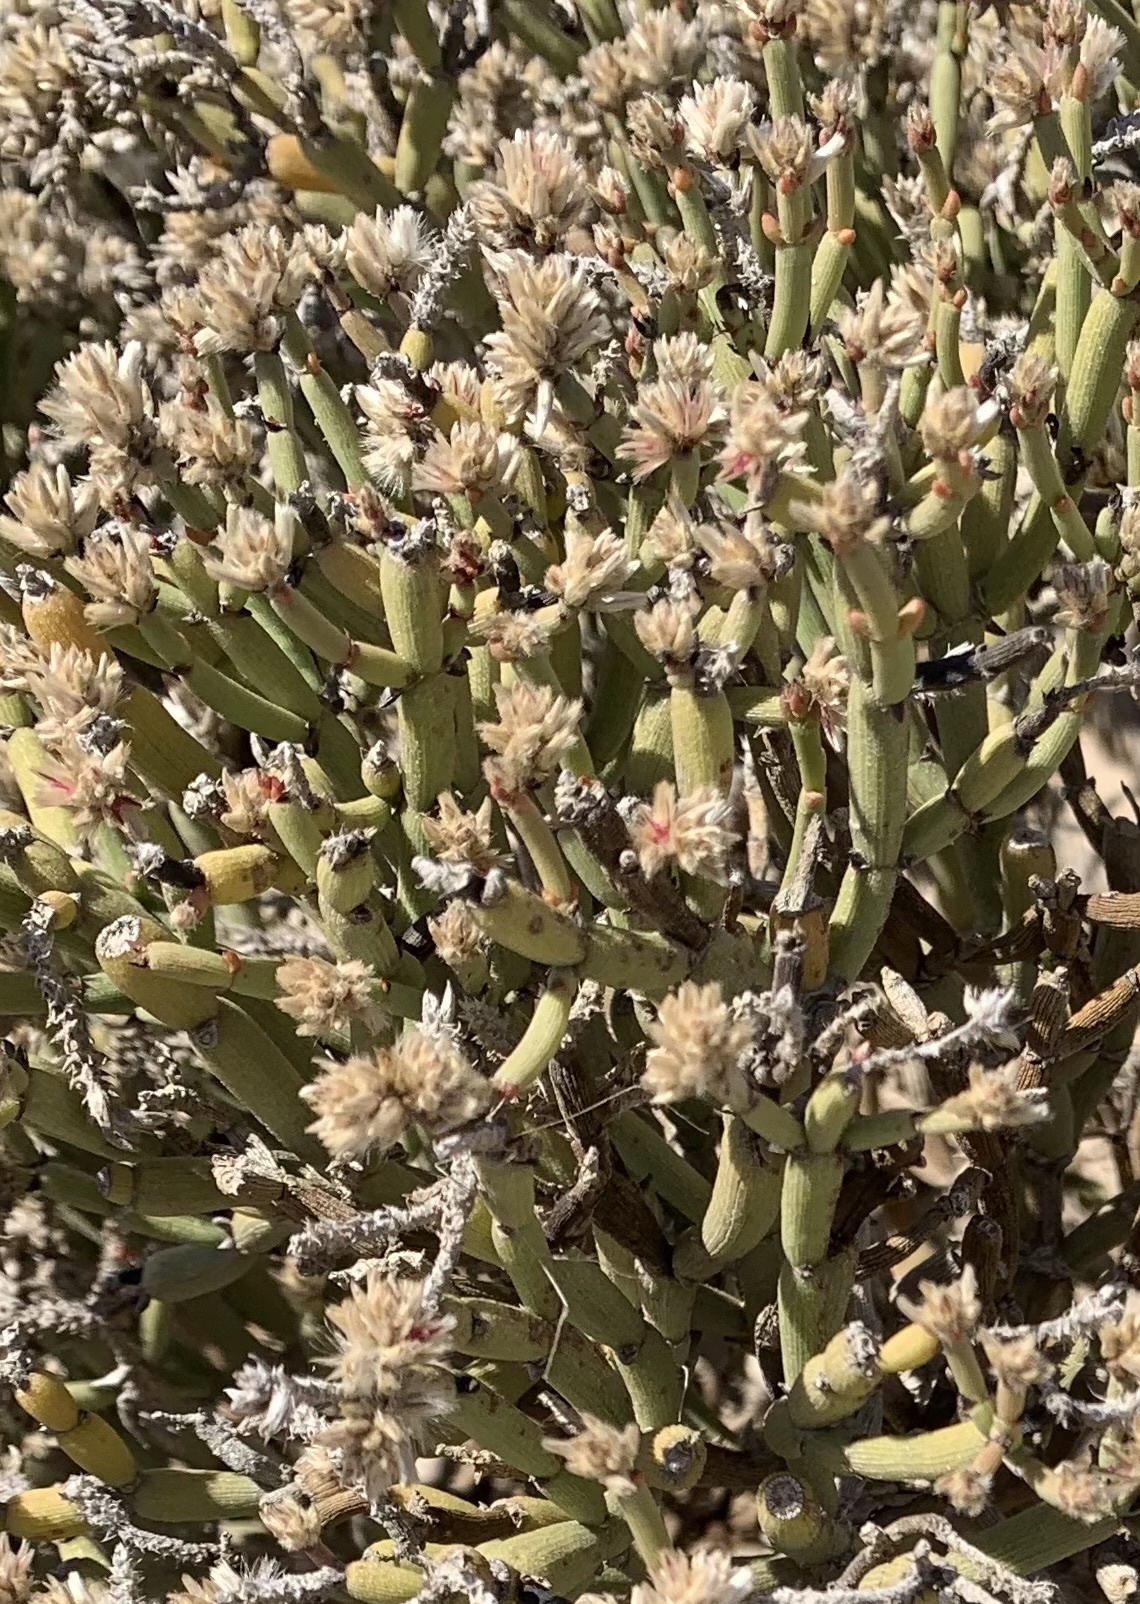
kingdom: Plantae
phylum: Tracheophyta
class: Magnoliopsida
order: Caryophyllales
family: Amaranthaceae
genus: Arthraerva
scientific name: Arthraerva leubnitziae
